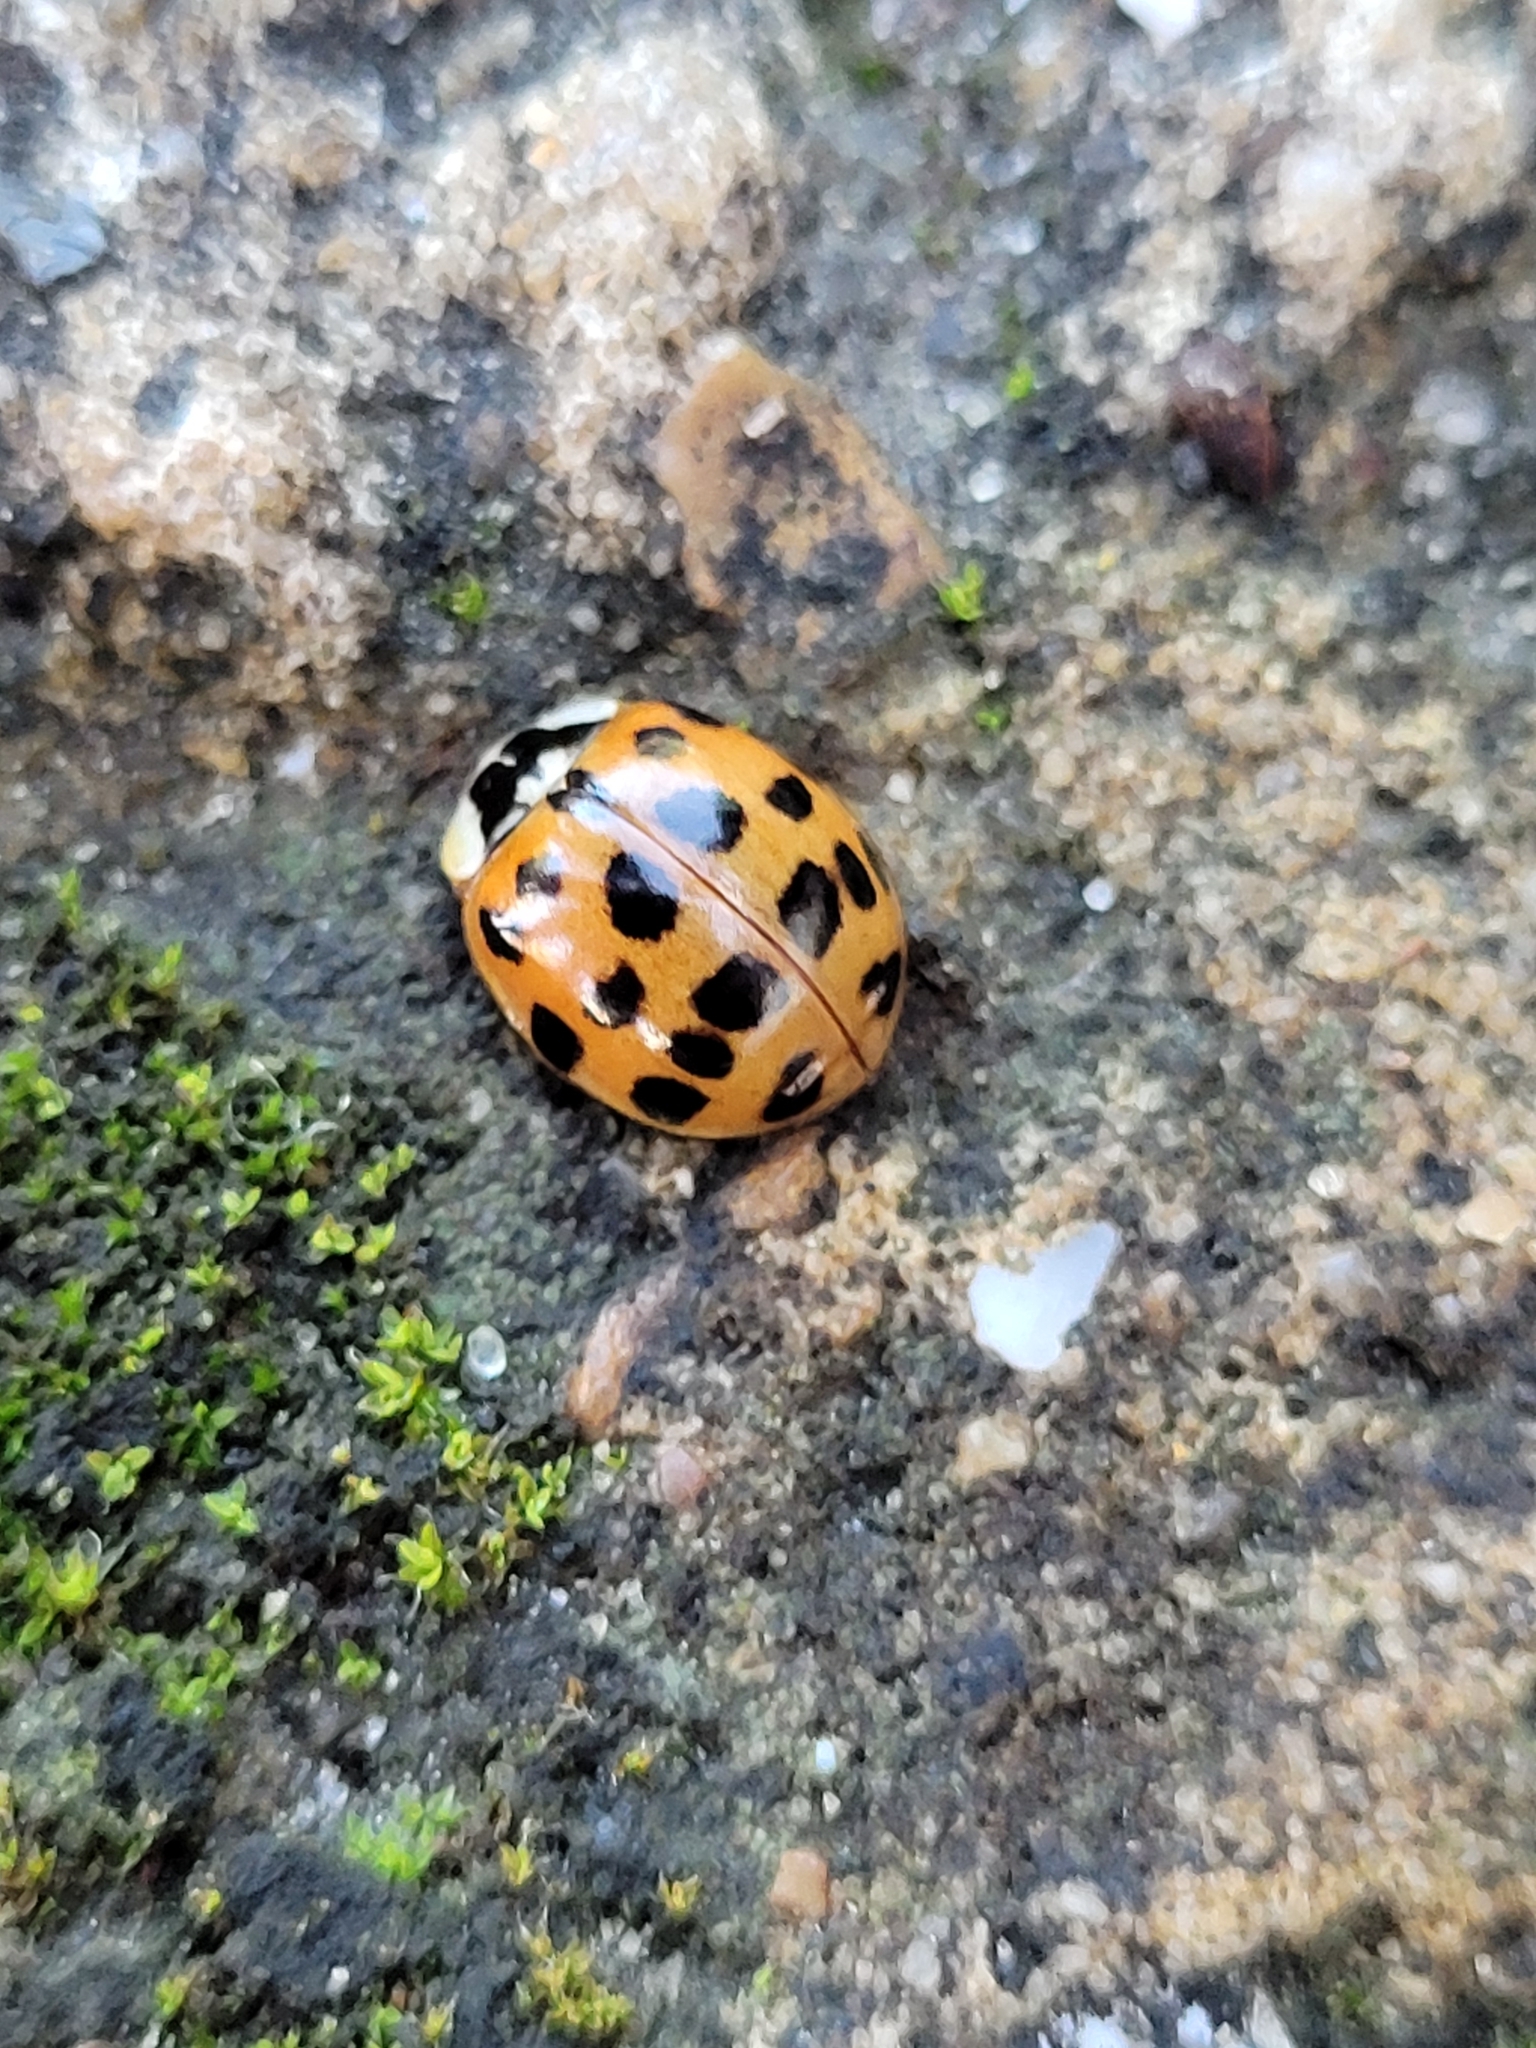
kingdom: Animalia
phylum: Arthropoda
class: Insecta
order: Coleoptera
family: Coccinellidae
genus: Harmonia
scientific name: Harmonia axyridis
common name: Harlequin ladybird
